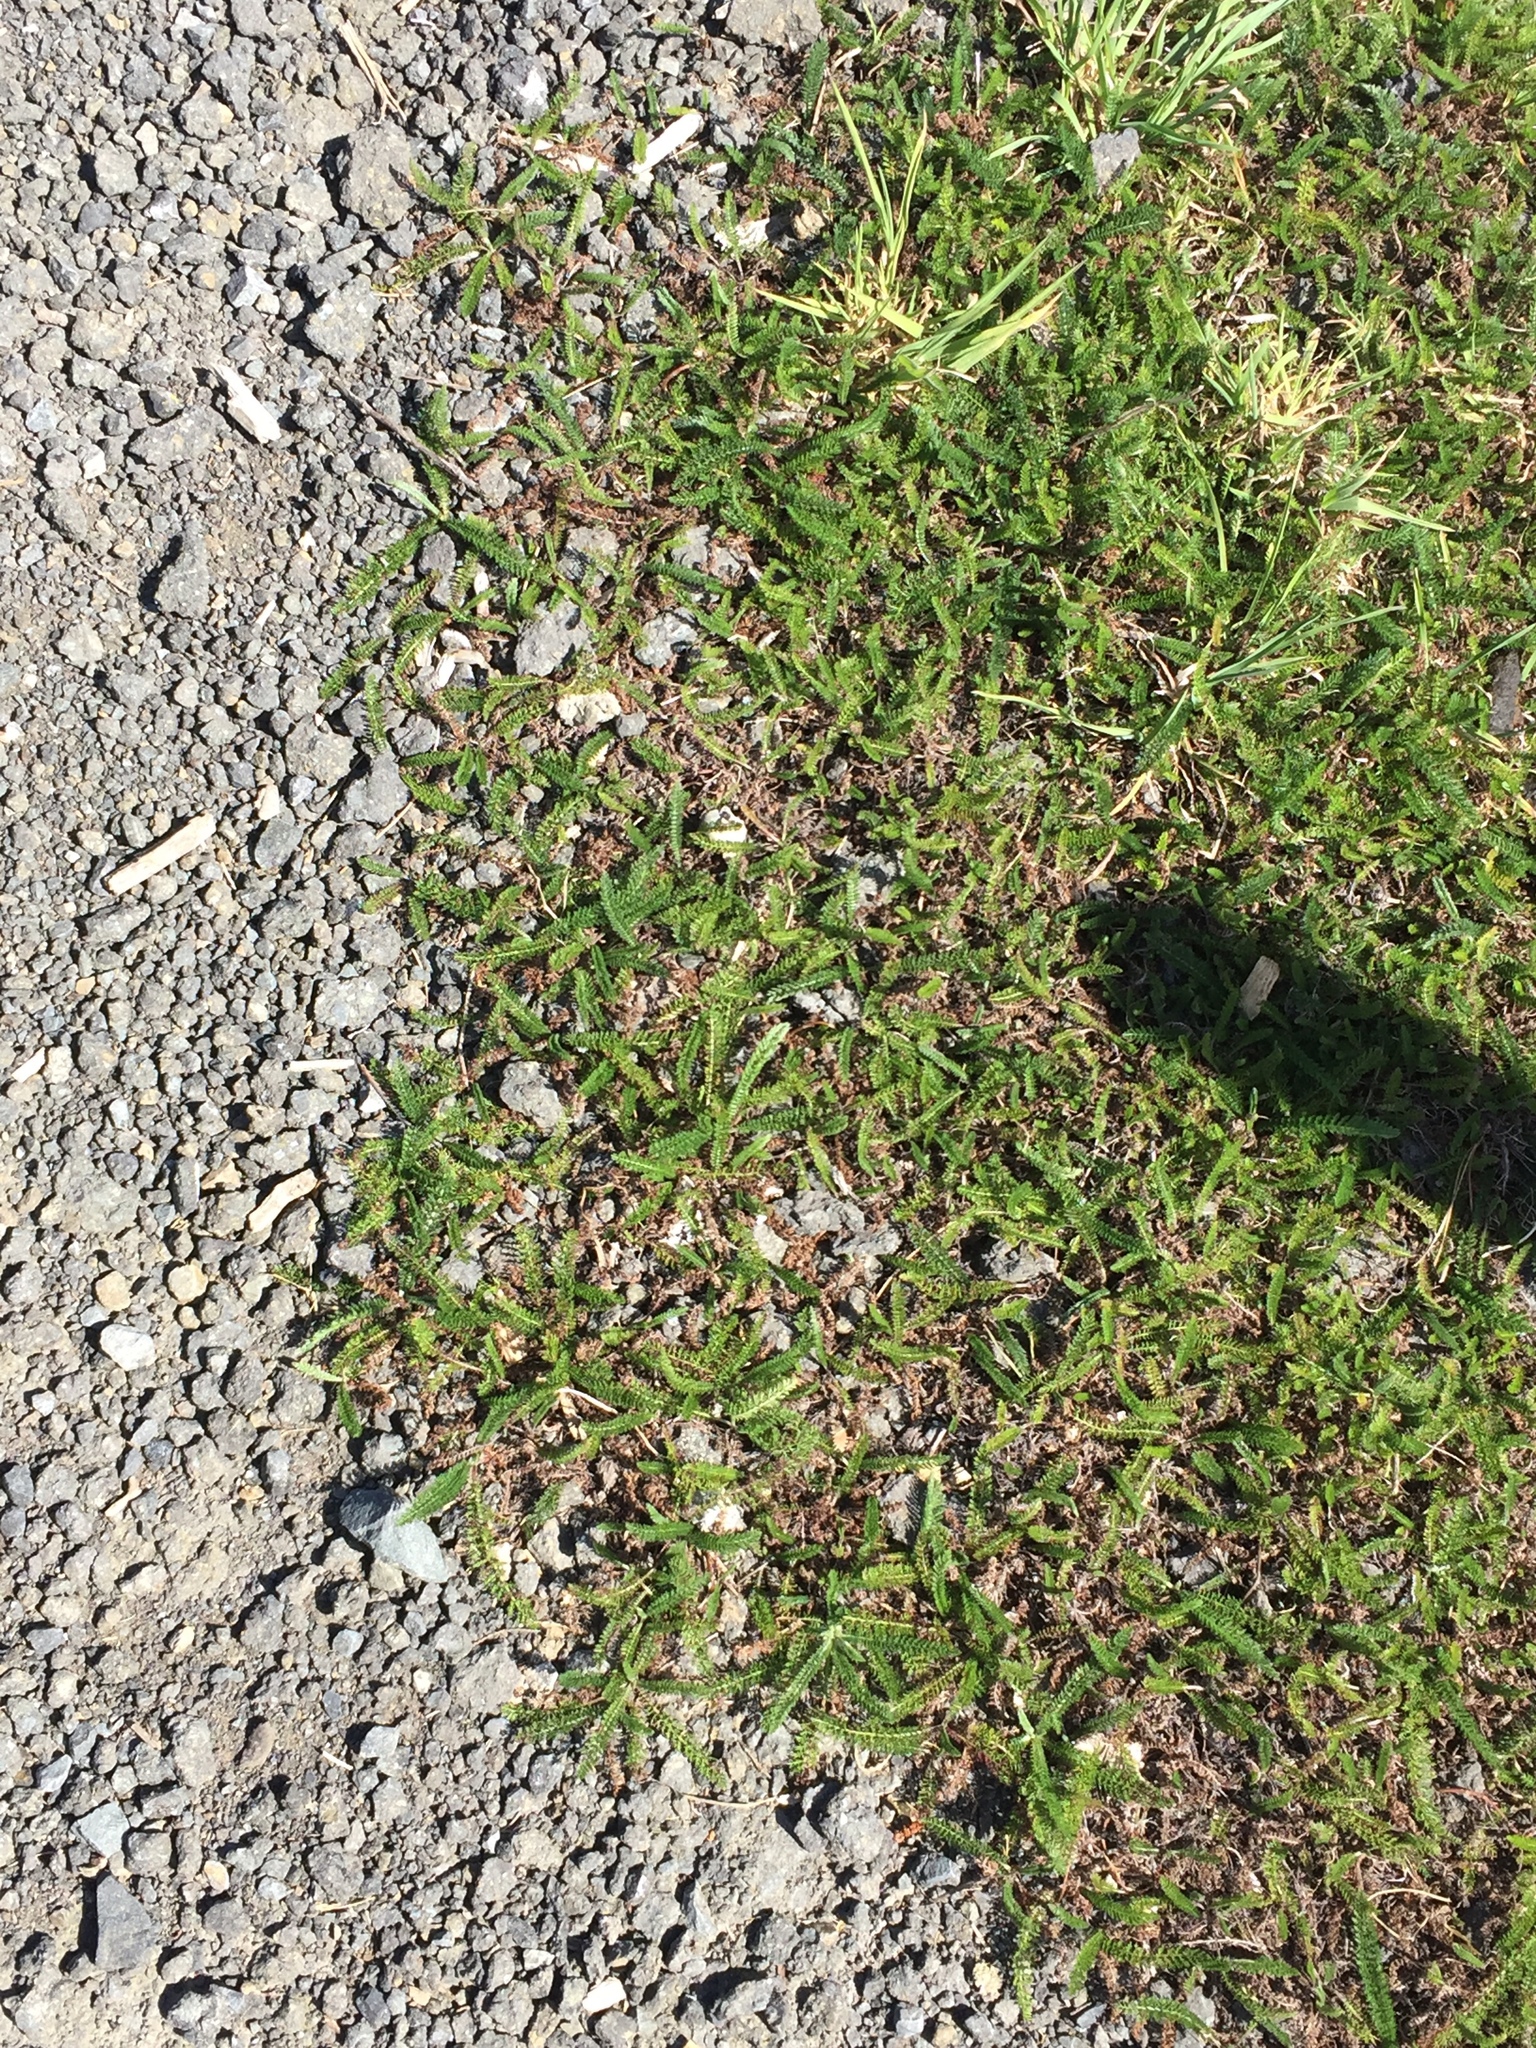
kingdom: Plantae
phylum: Tracheophyta
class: Magnoliopsida
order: Asterales
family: Asteraceae
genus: Achillea
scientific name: Achillea millefolium
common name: Yarrow
